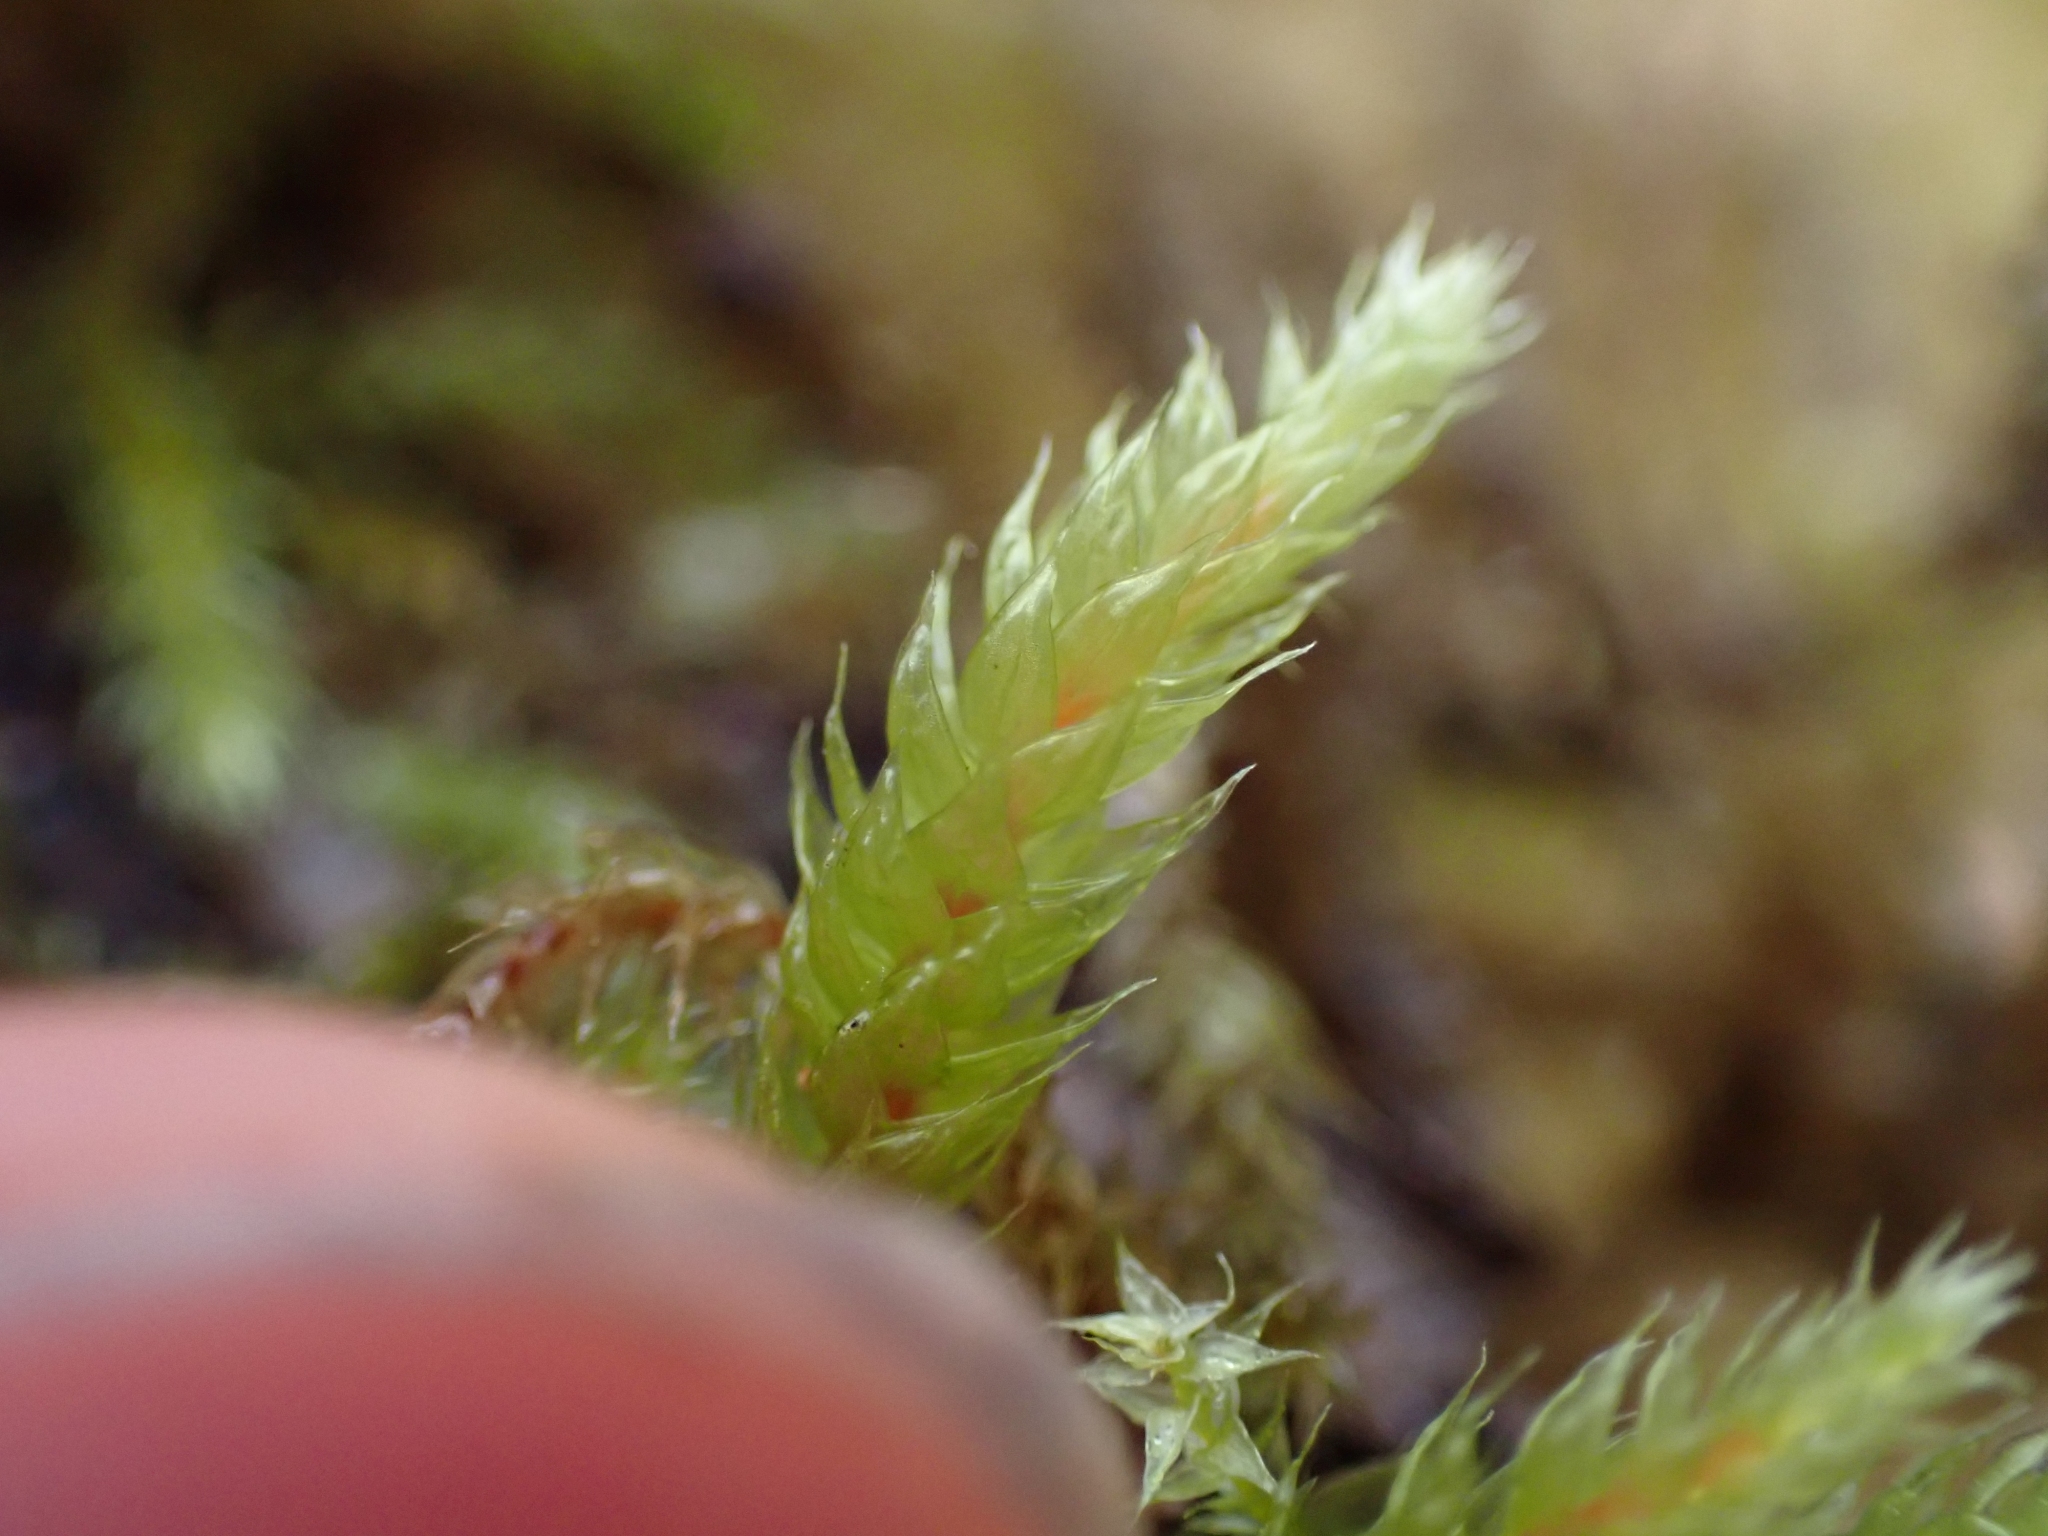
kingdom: Plantae
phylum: Bryophyta
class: Bryopsida
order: Hypnales
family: Antitrichiaceae
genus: Antitrichia
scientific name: Antitrichia curtipendula
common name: Pendulous wing-moss
